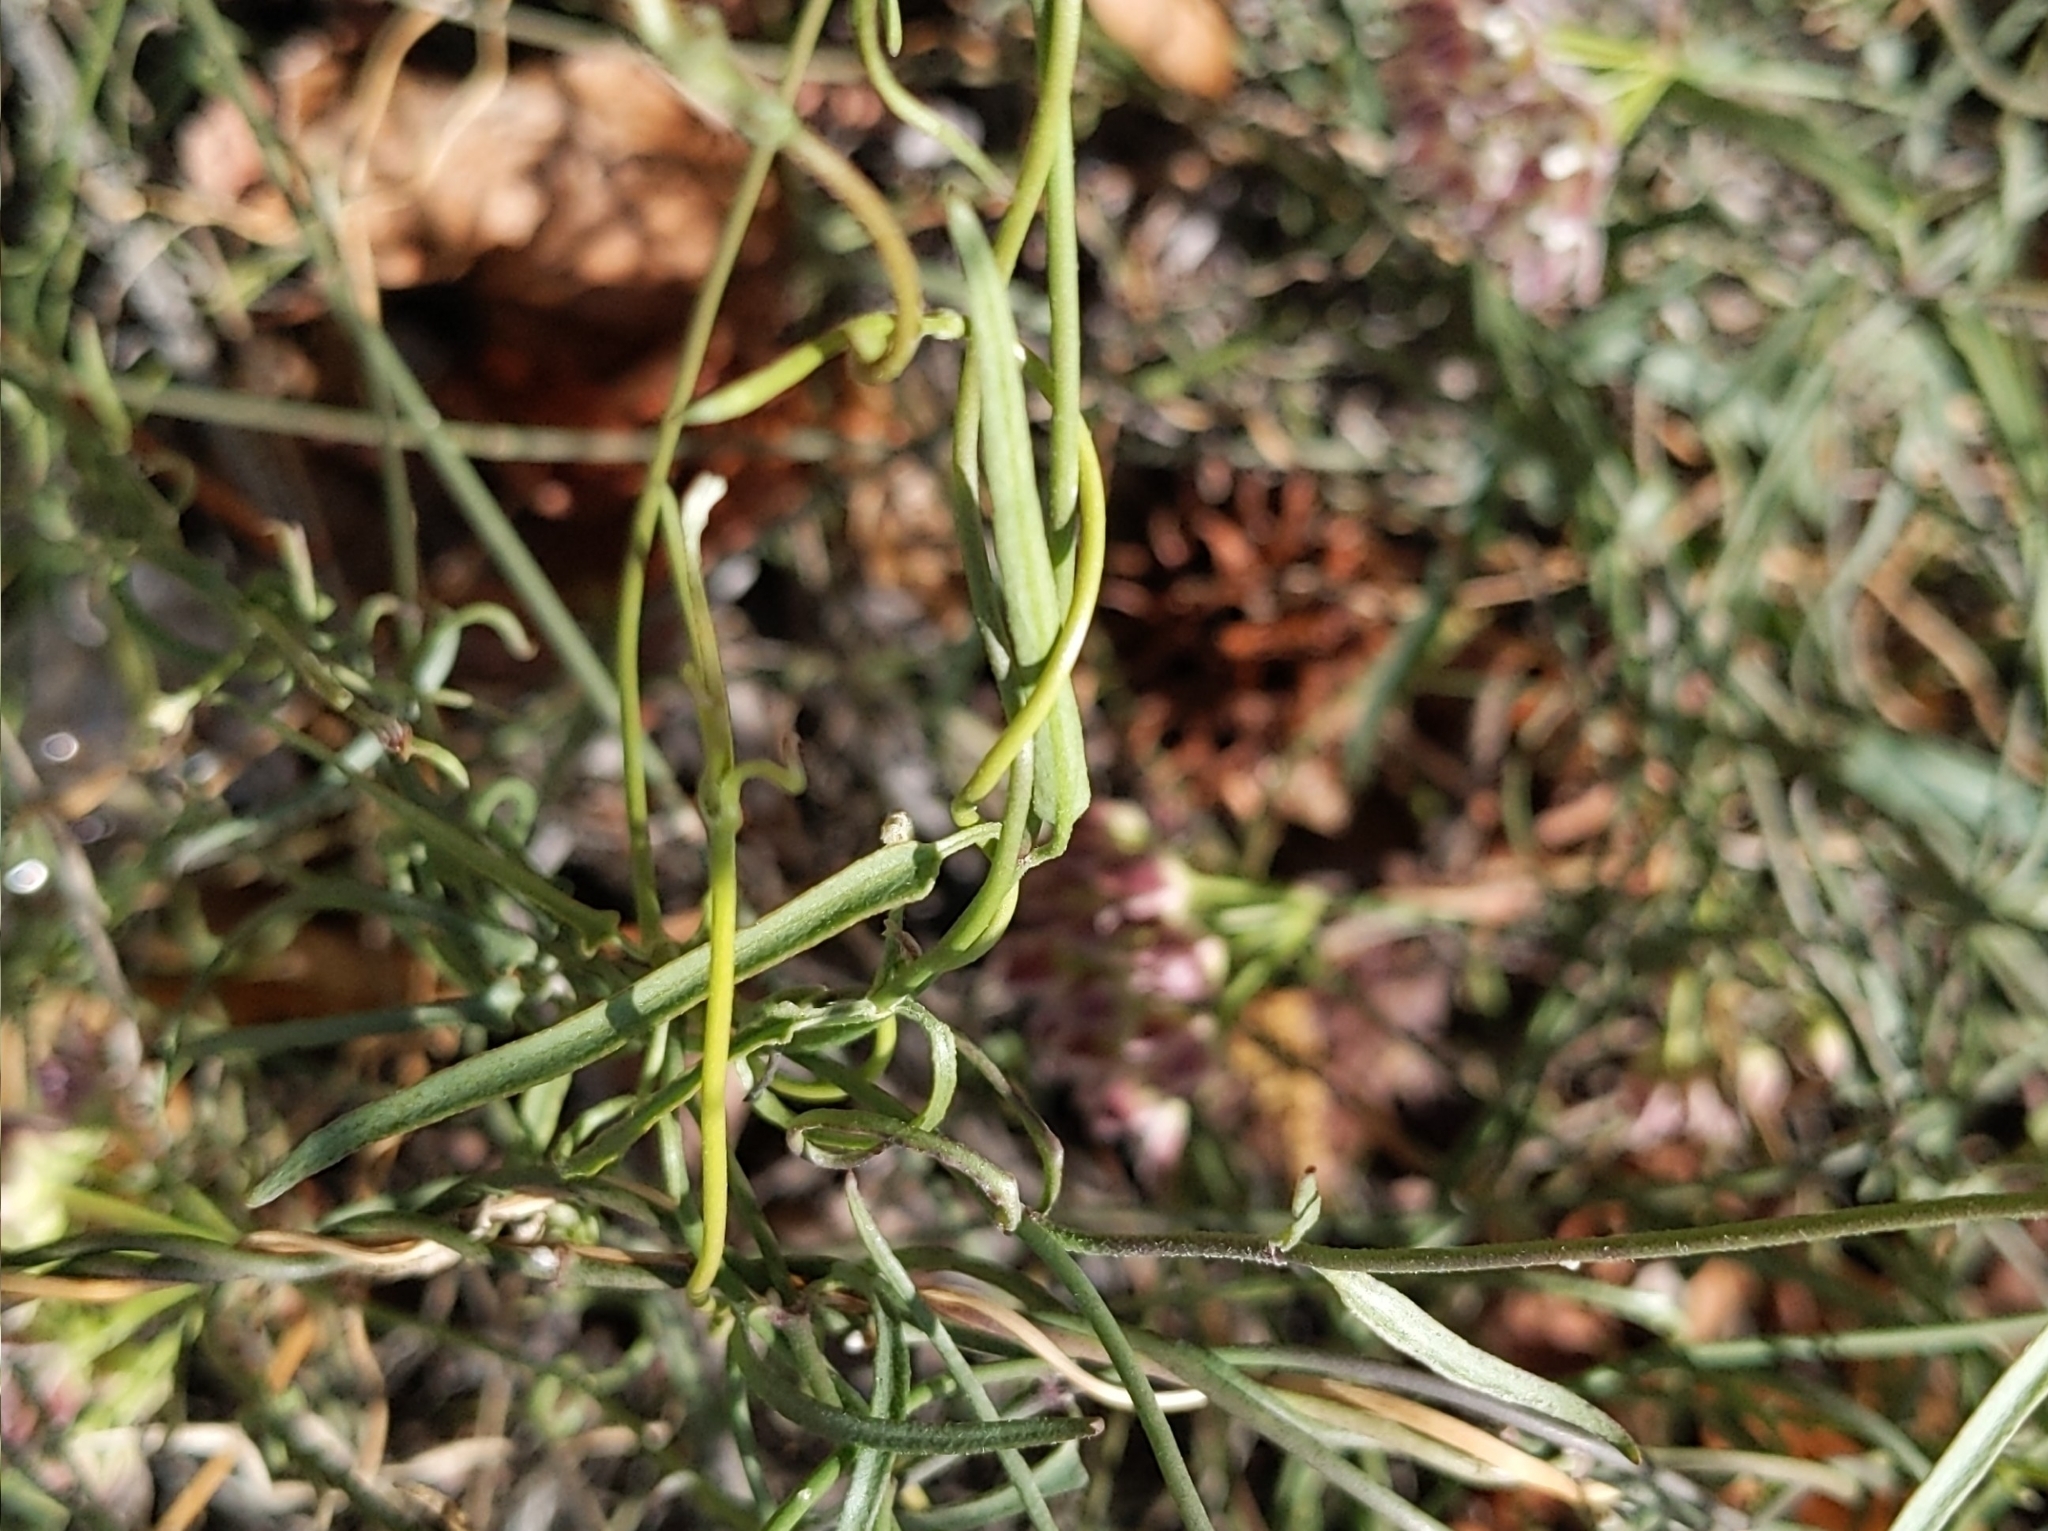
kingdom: Plantae
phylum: Tracheophyta
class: Magnoliopsida
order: Gentianales
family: Apocynaceae
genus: Funastrum
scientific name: Funastrum heterophyllum
